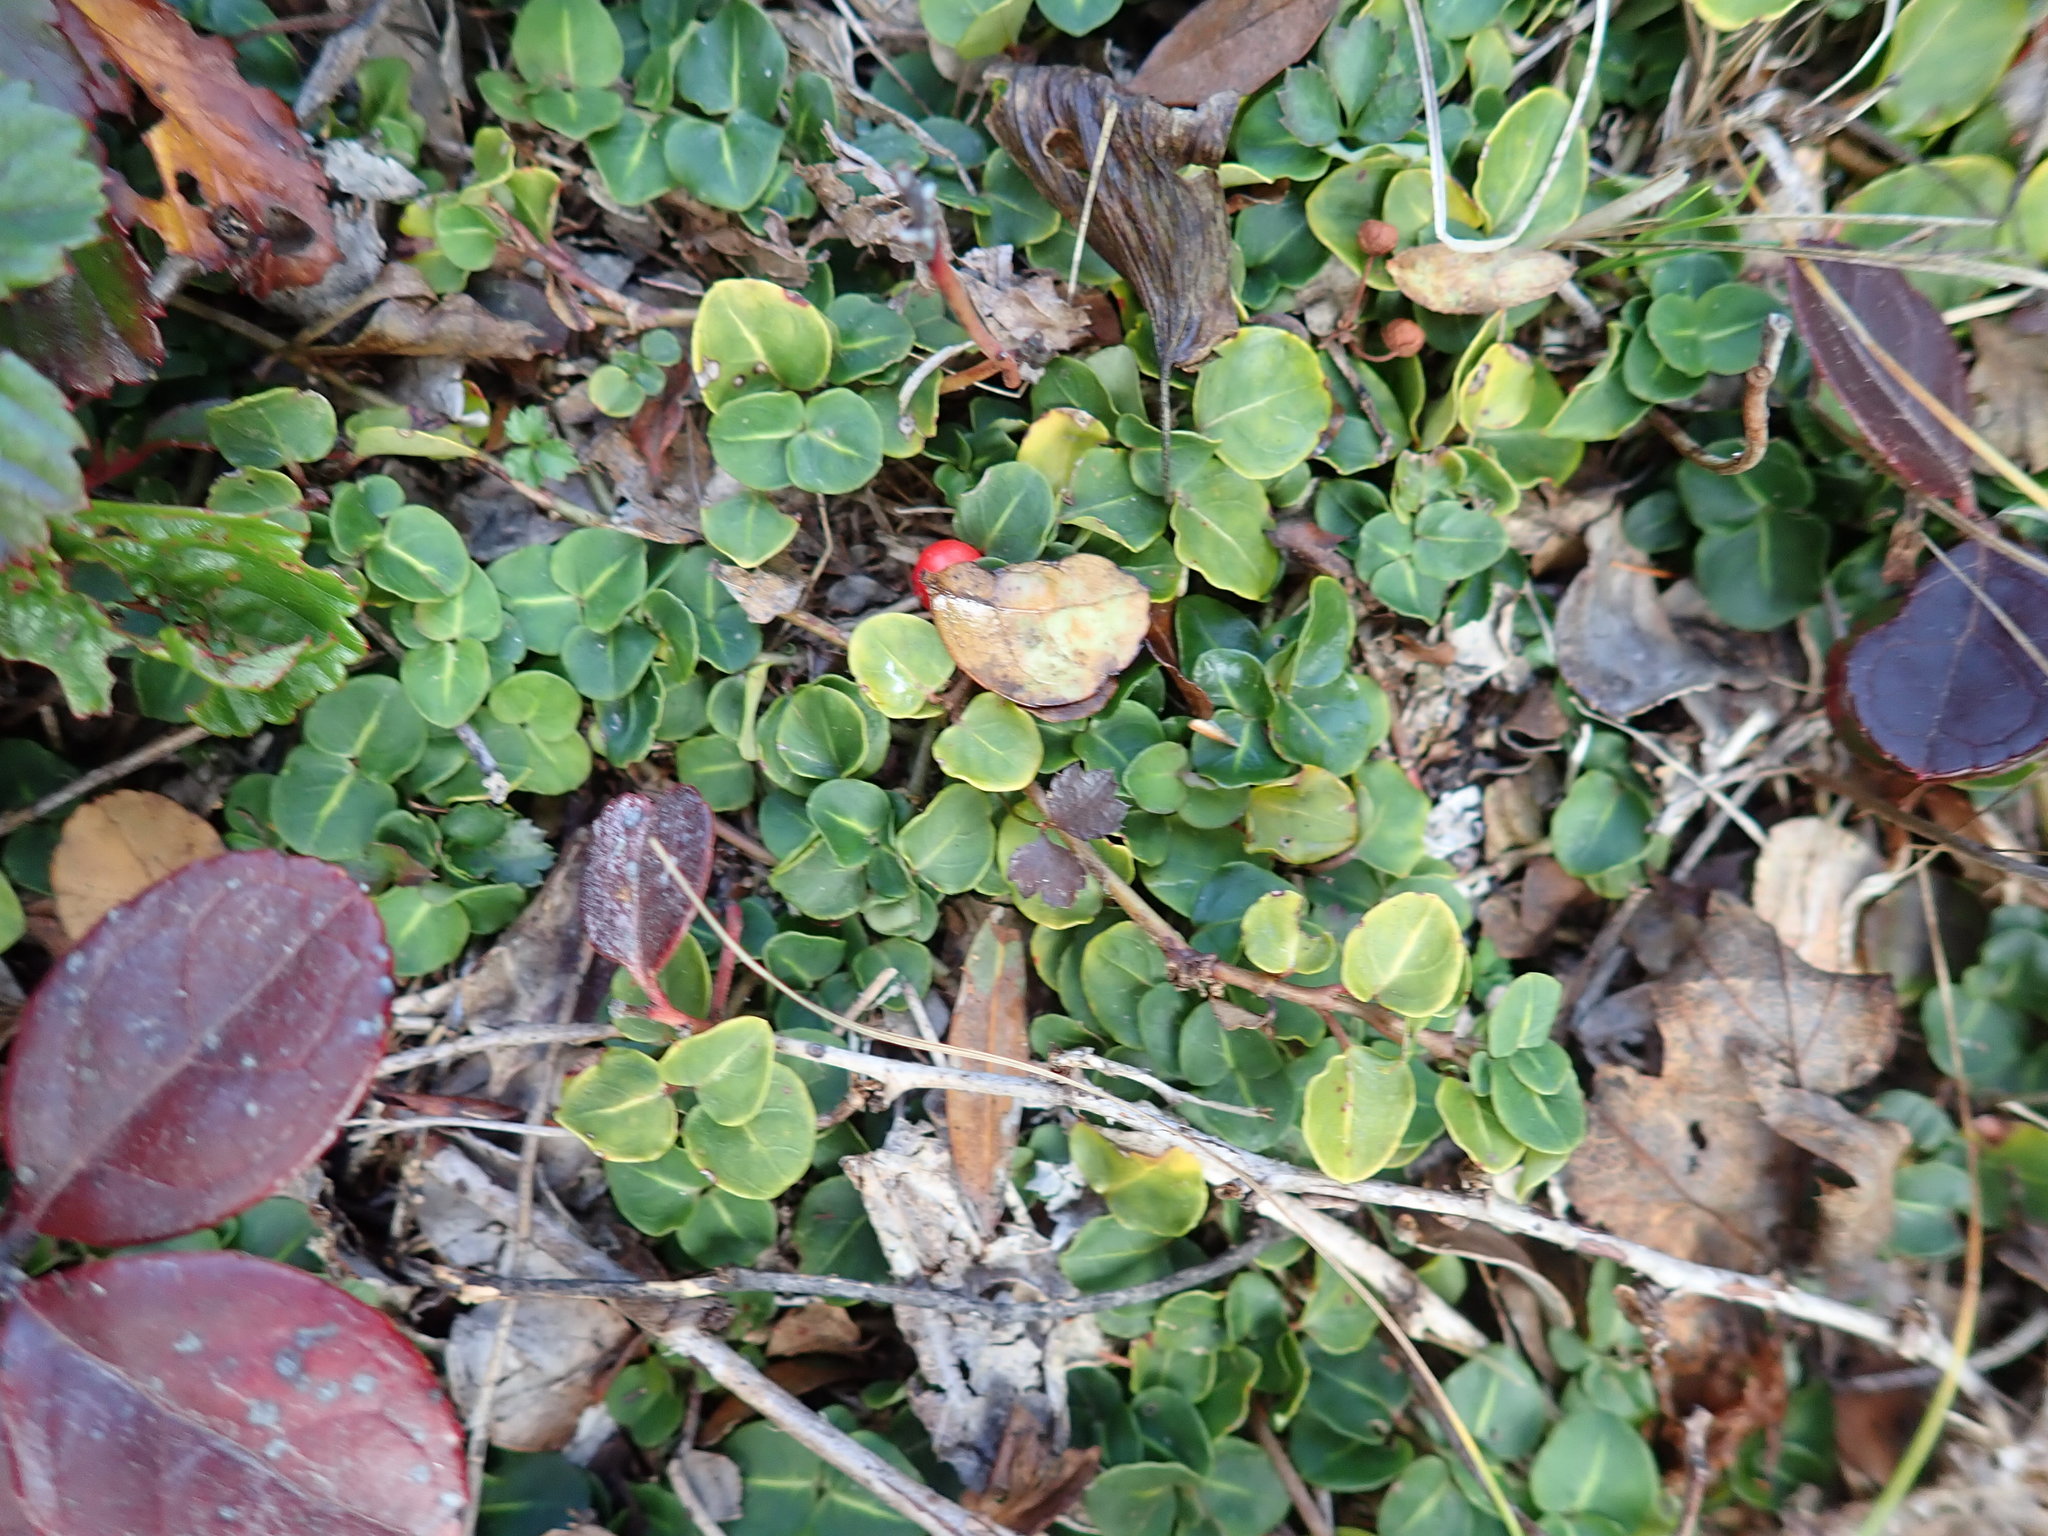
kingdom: Plantae
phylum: Tracheophyta
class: Magnoliopsida
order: Gentianales
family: Rubiaceae
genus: Mitchella
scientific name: Mitchella repens
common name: Partridge-berry
